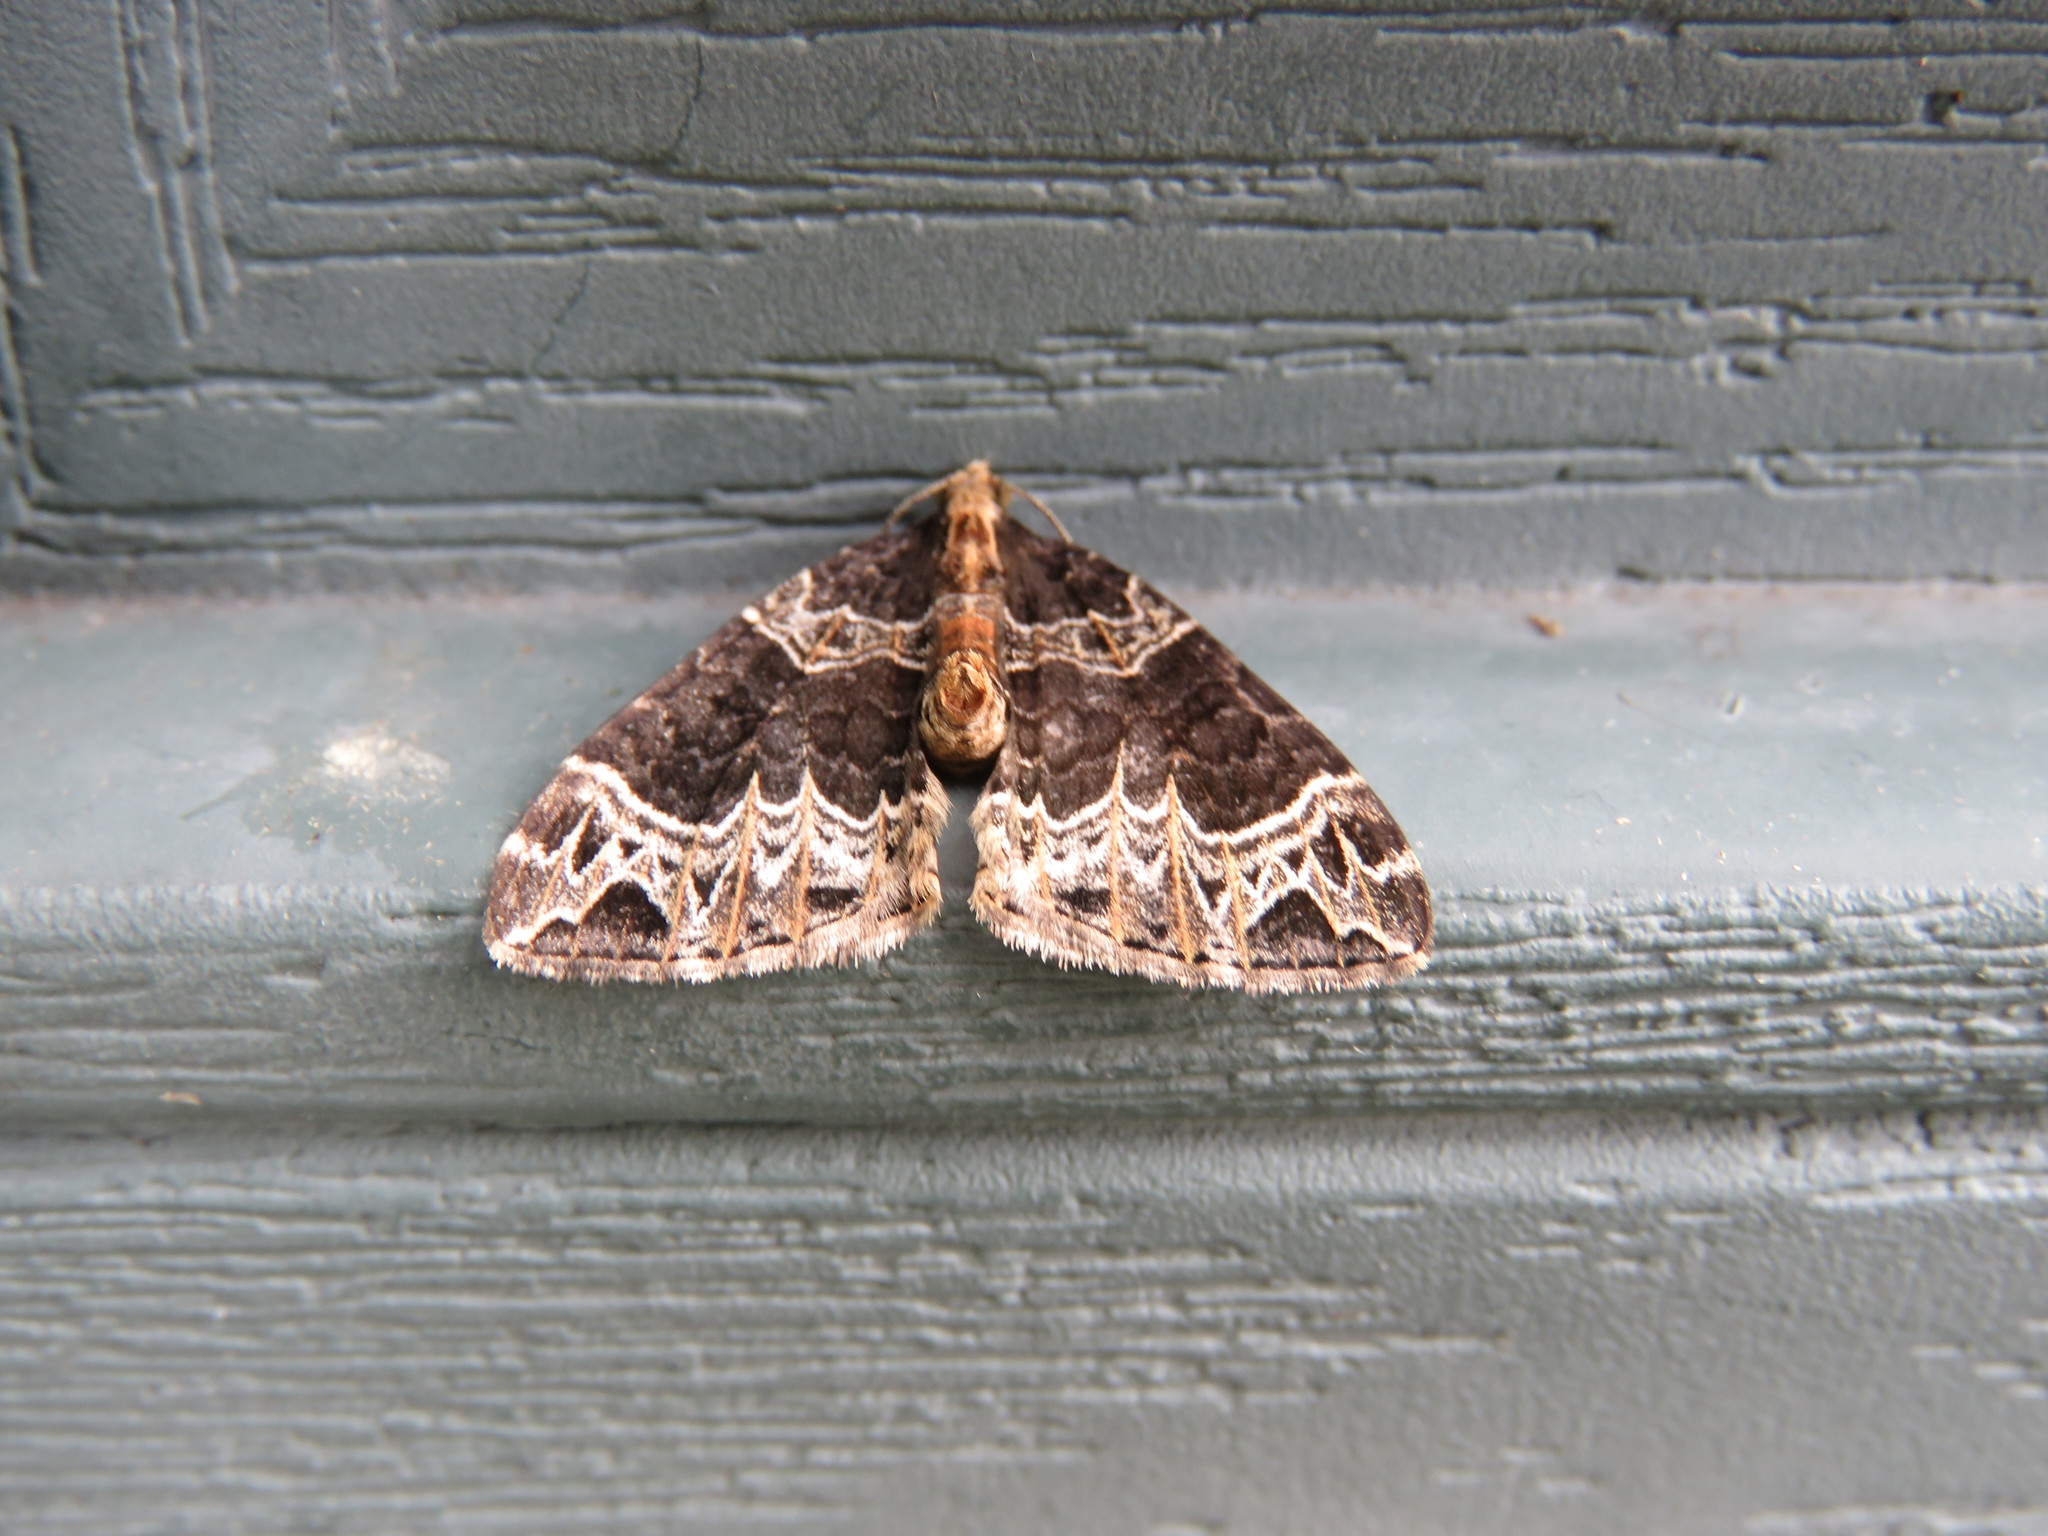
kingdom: Animalia
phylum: Arthropoda
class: Insecta
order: Lepidoptera
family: Geometridae
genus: Ecliptopera
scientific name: Ecliptopera silaceata
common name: Small phoenix
